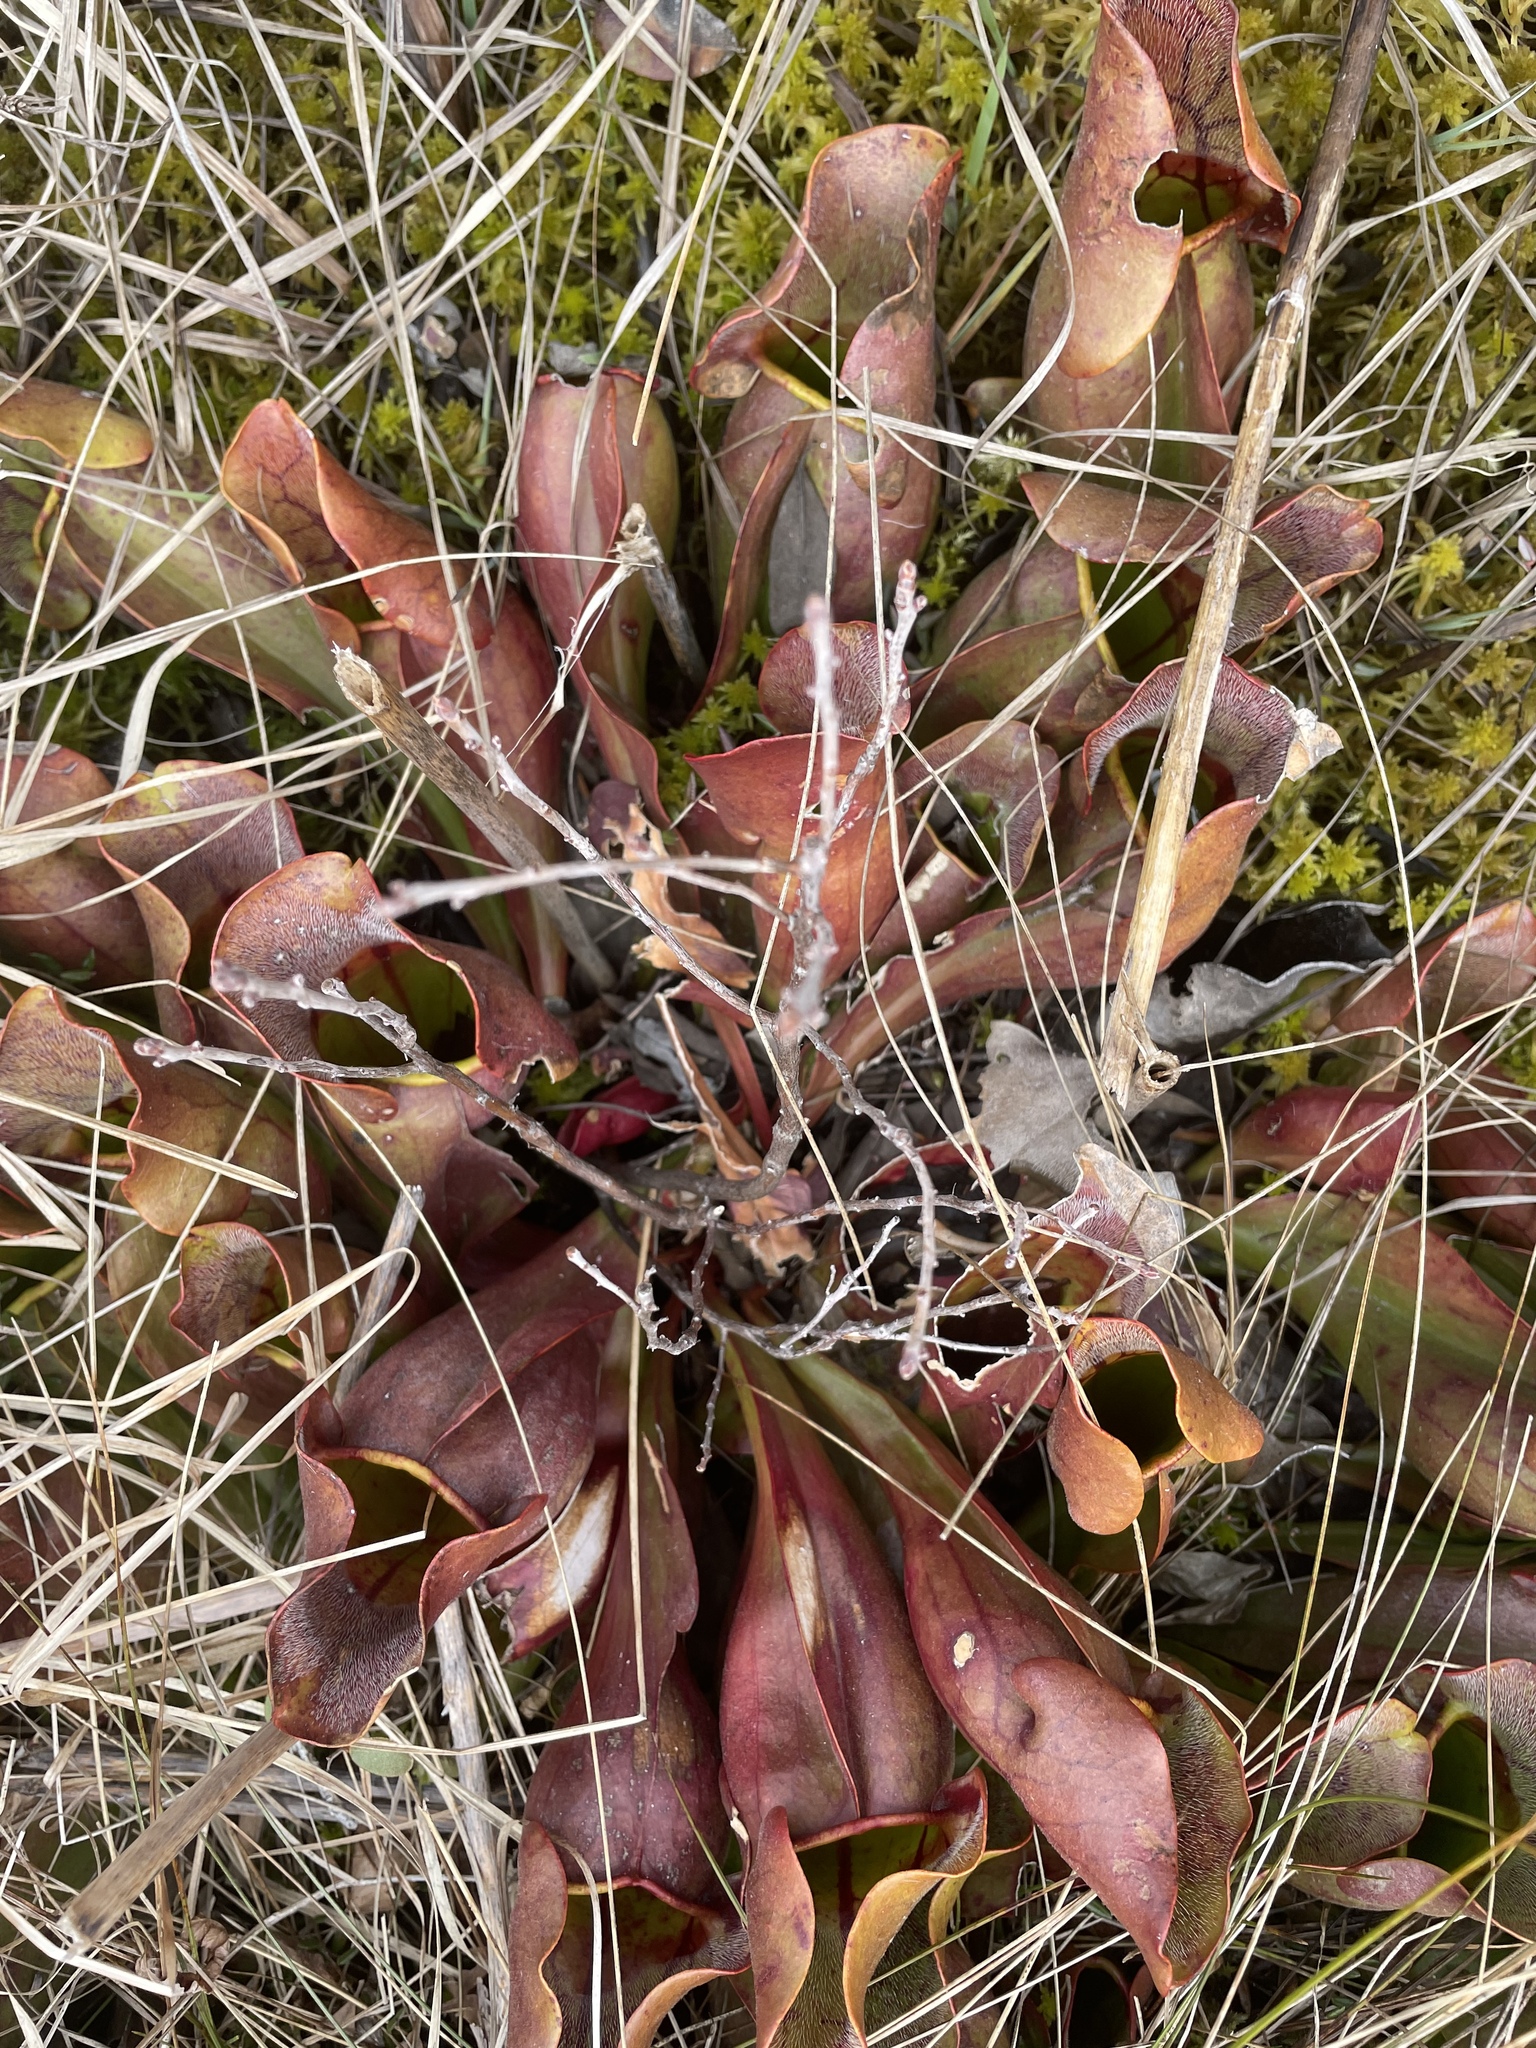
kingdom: Plantae
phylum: Tracheophyta
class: Magnoliopsida
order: Ericales
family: Sarraceniaceae
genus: Sarracenia
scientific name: Sarracenia purpurea
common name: Pitcherplant
